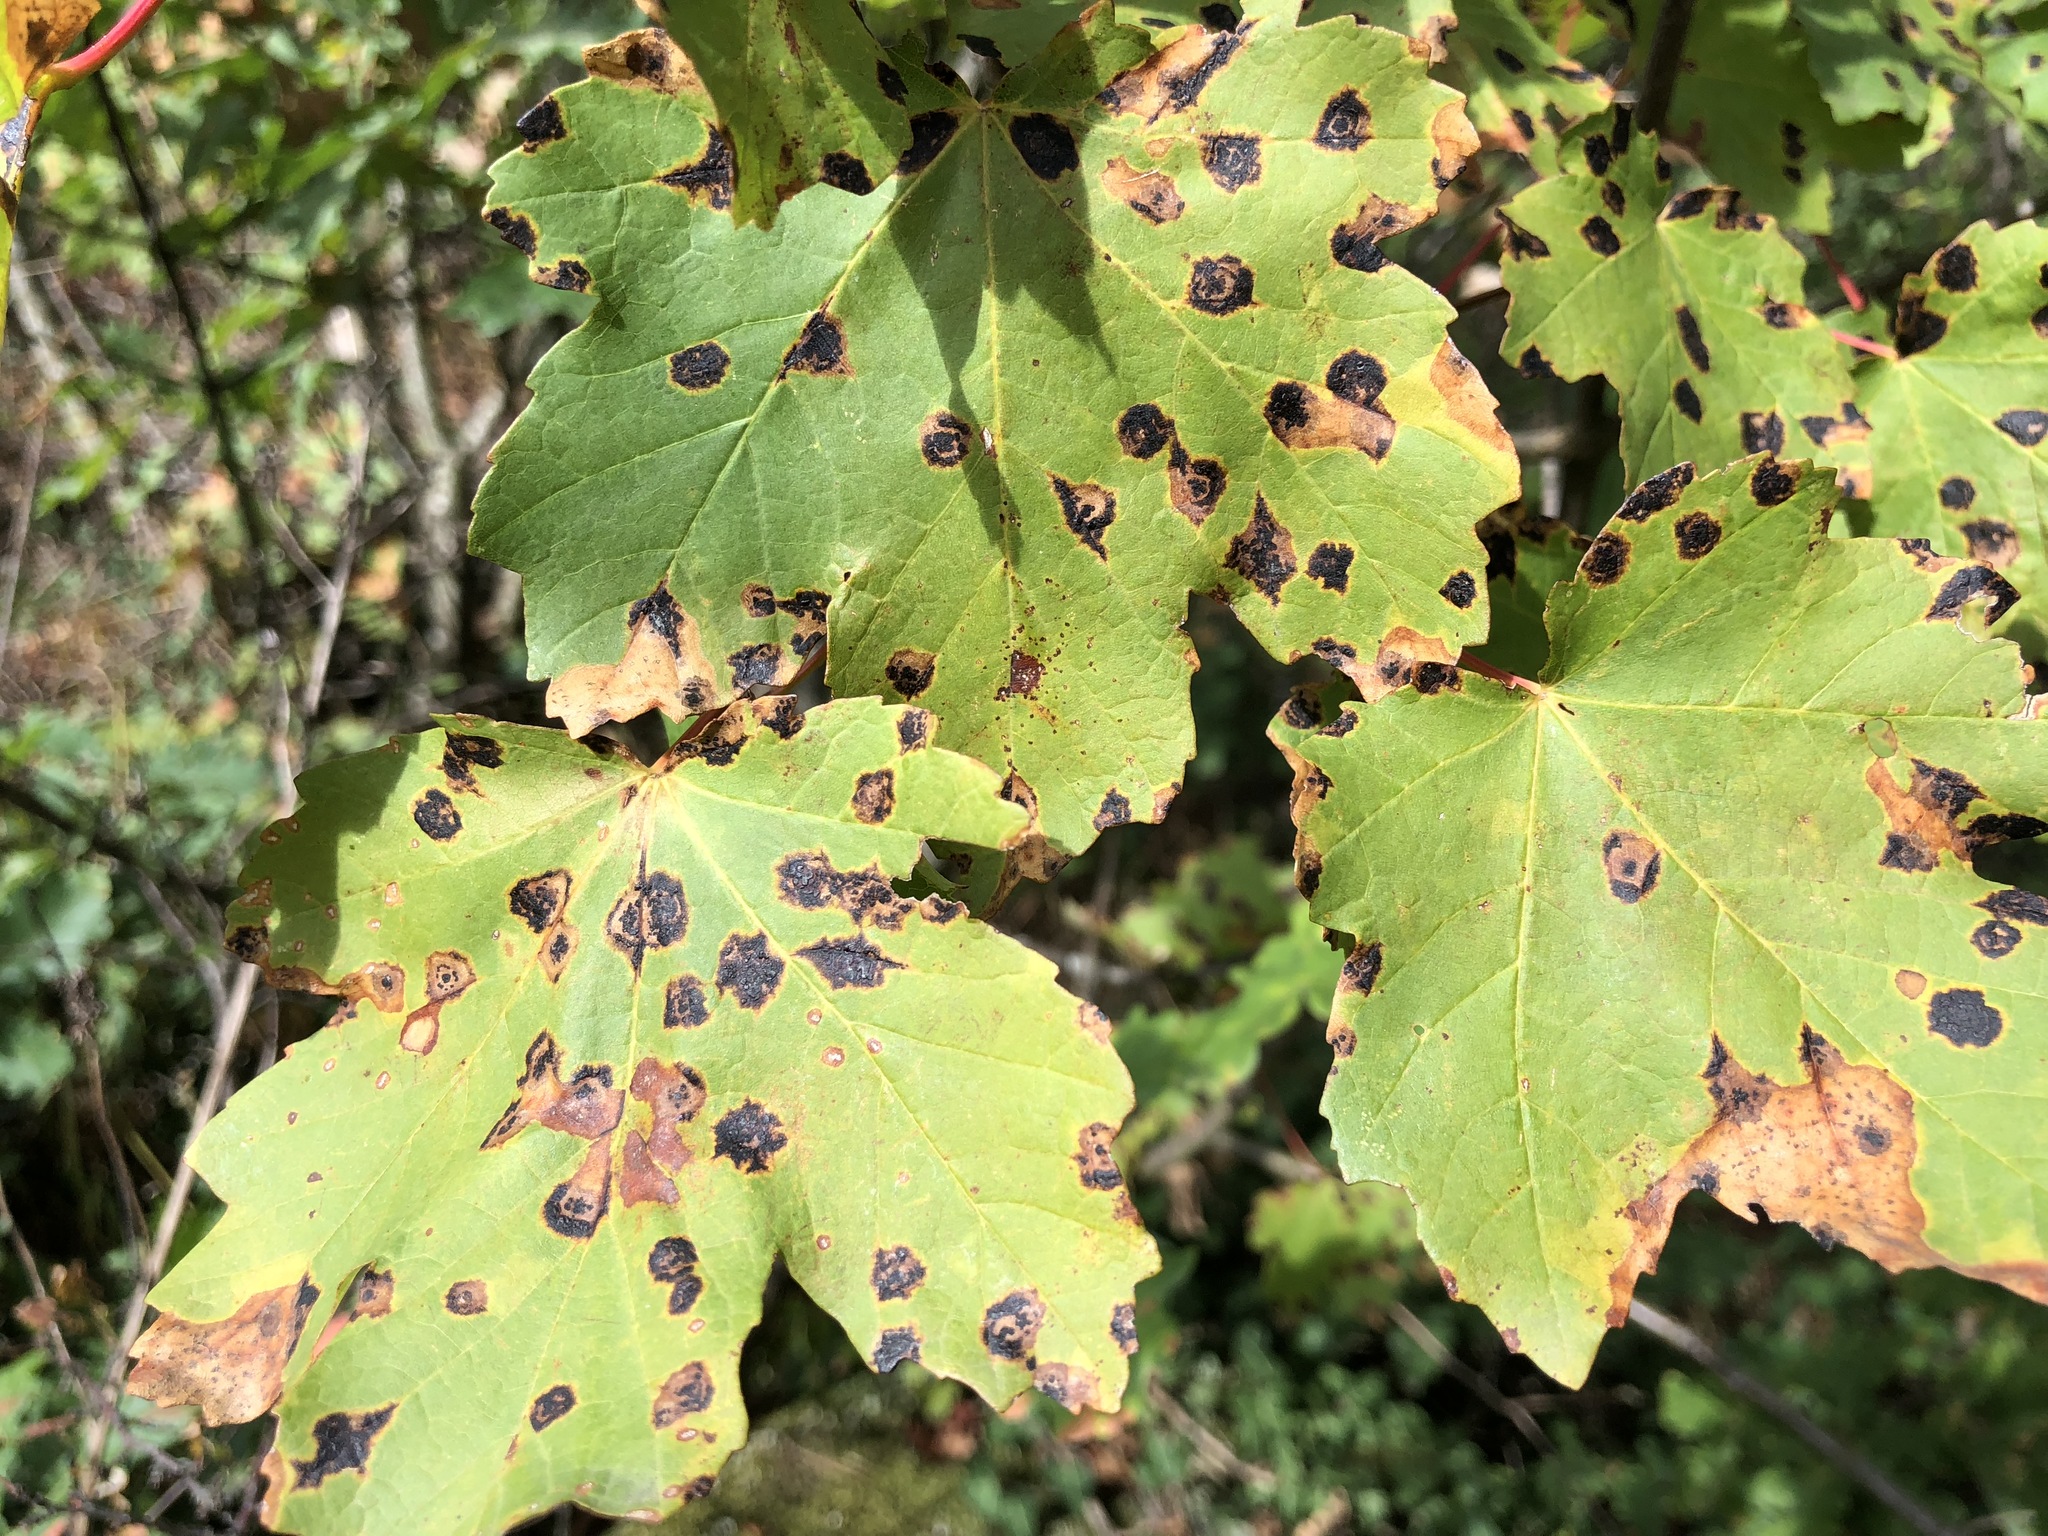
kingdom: Fungi
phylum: Ascomycota
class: Leotiomycetes
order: Rhytismatales
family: Rhytismataceae
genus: Rhytisma
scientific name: Rhytisma acerinum
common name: European tar spot
